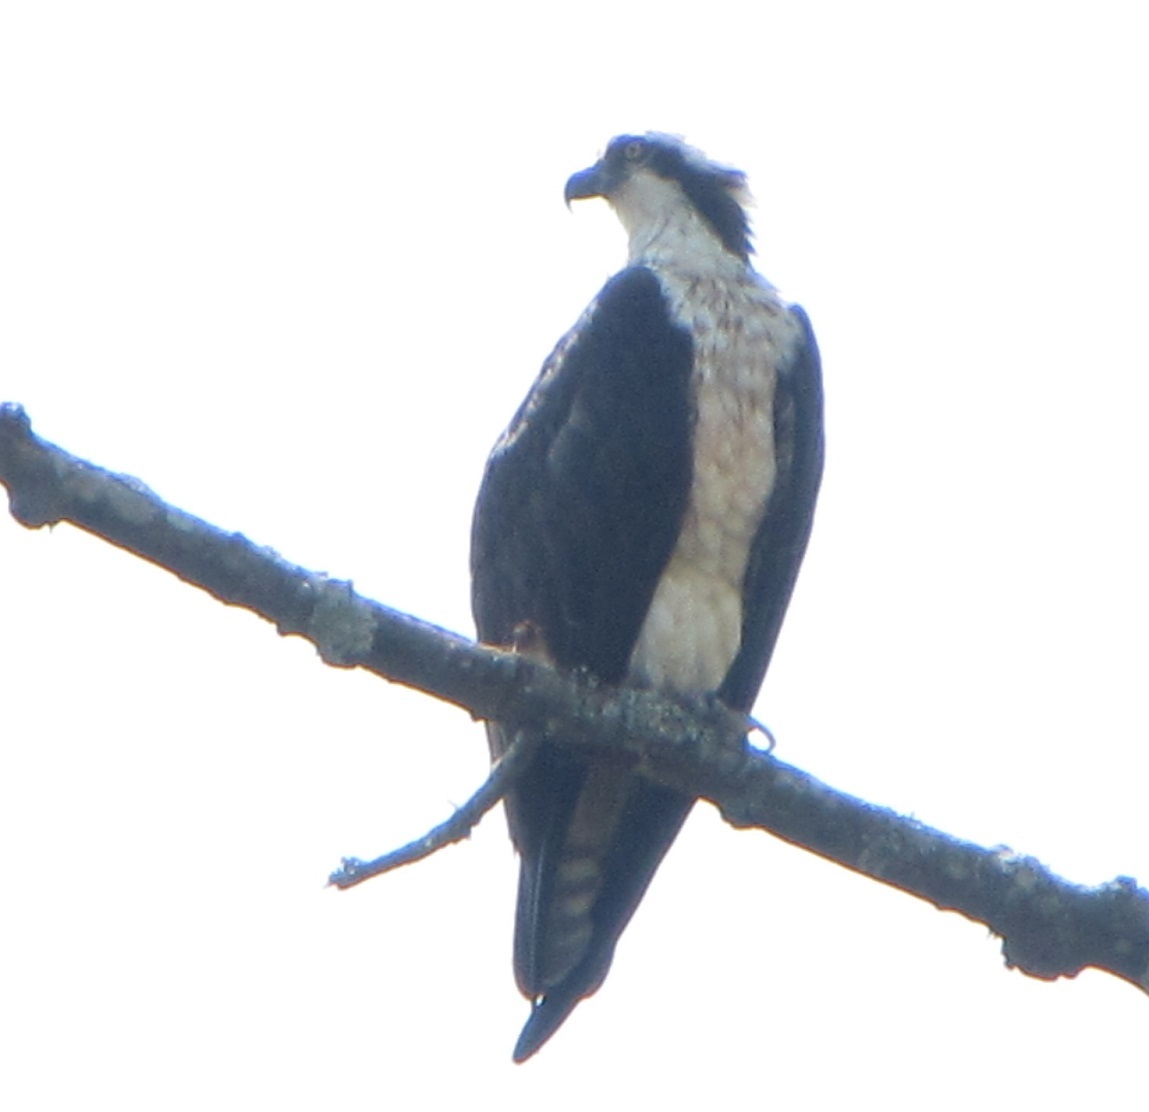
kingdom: Animalia
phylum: Chordata
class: Aves
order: Accipitriformes
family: Pandionidae
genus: Pandion
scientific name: Pandion haliaetus
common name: Osprey
